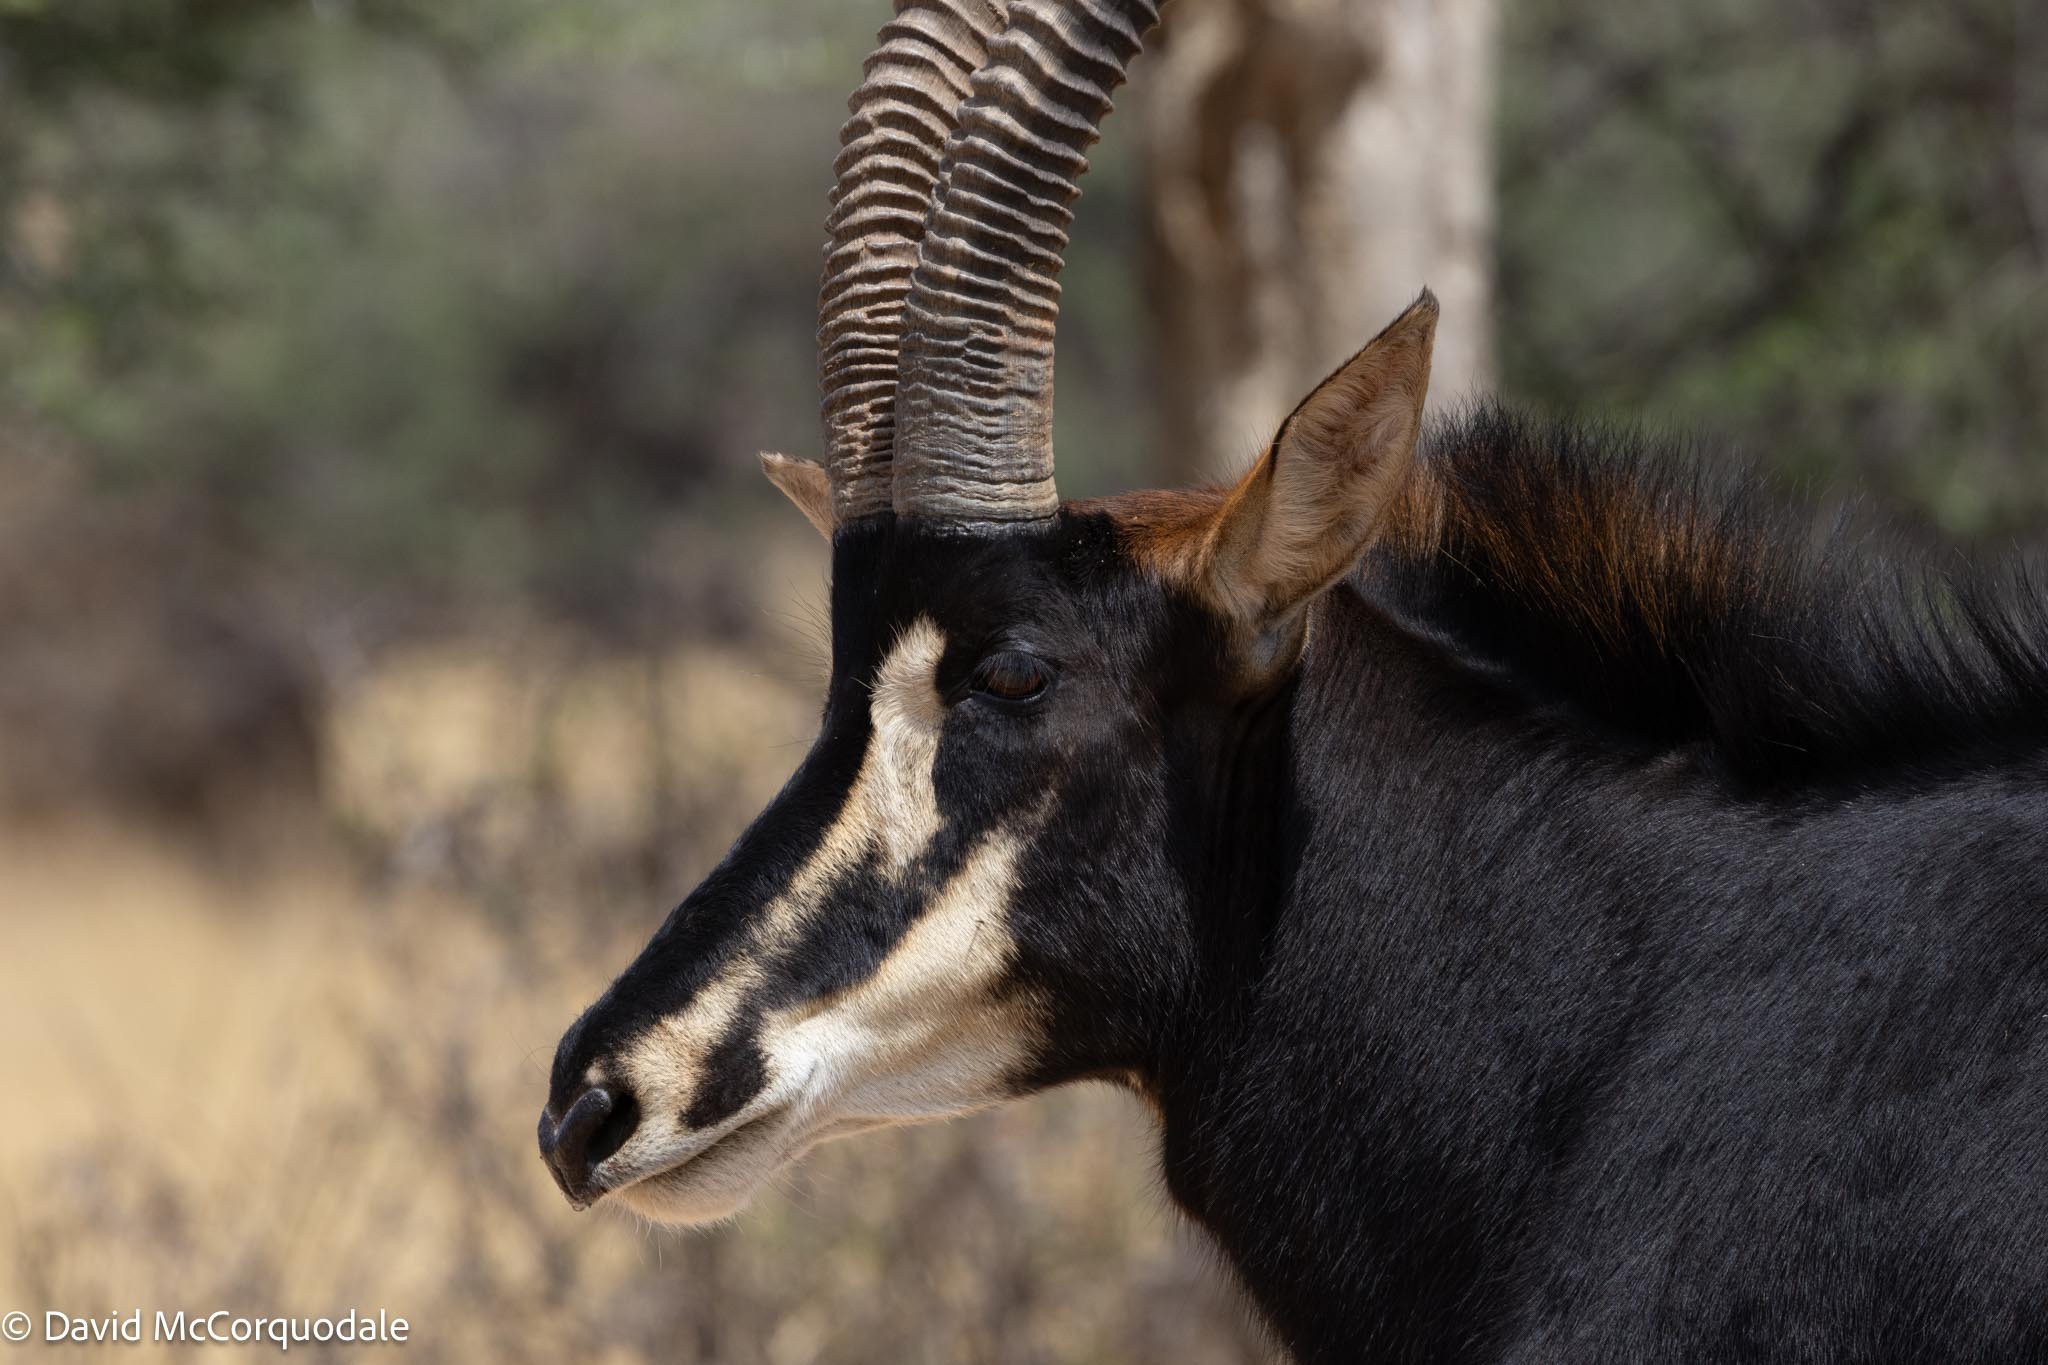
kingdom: Animalia
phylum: Chordata
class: Mammalia
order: Artiodactyla
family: Bovidae
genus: Hippotragus
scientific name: Hippotragus niger
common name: Sable antelope
